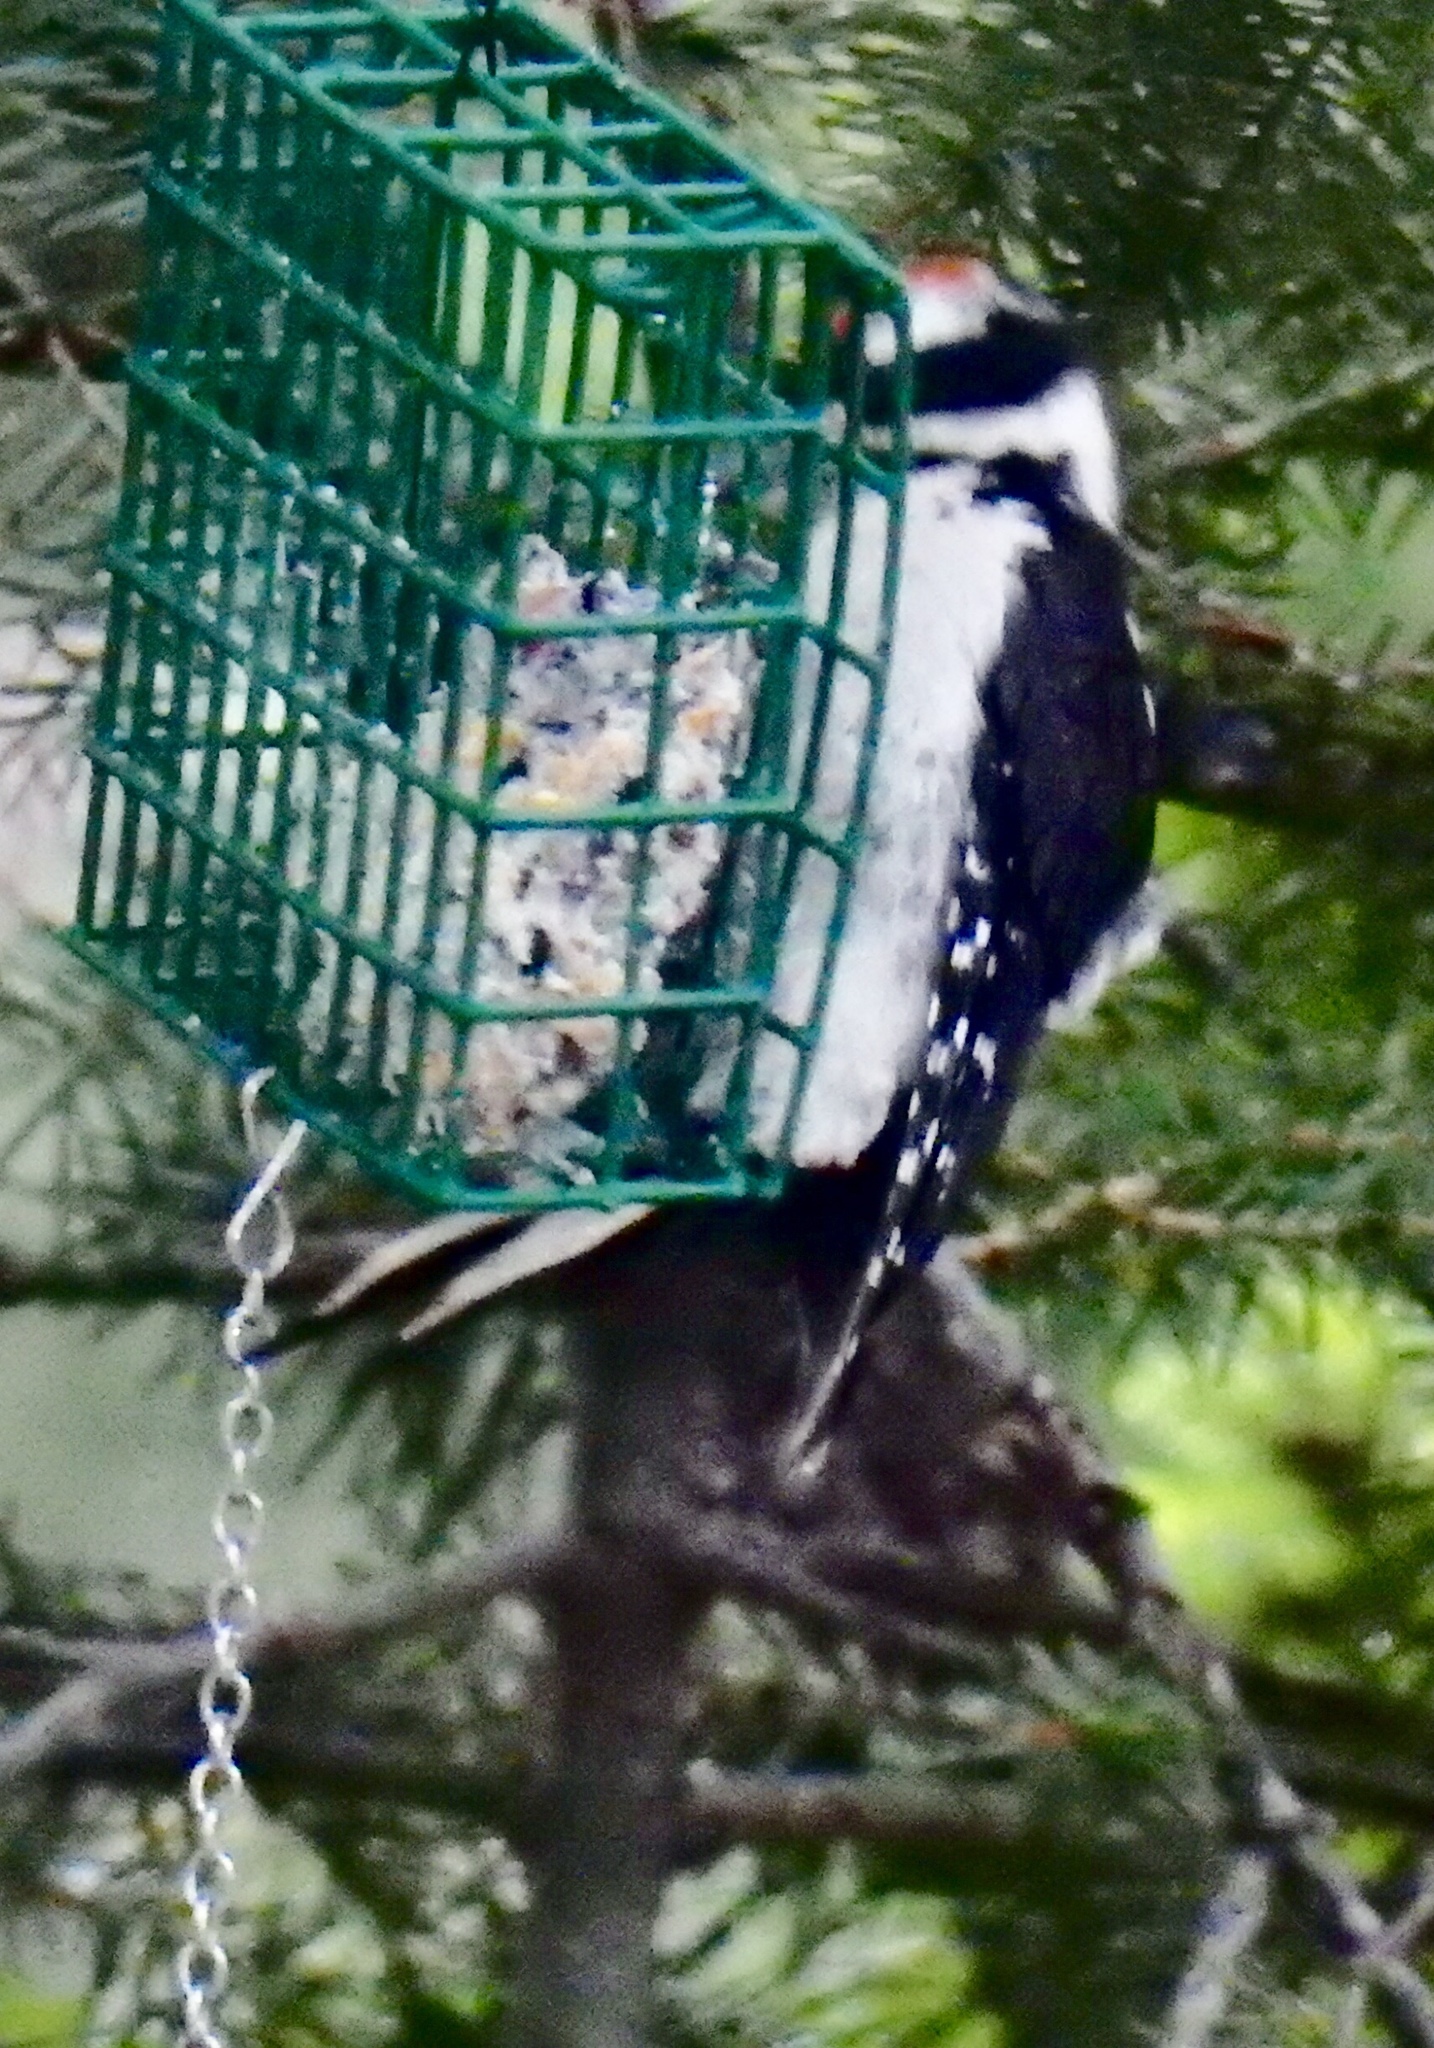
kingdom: Animalia
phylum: Chordata
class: Aves
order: Piciformes
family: Picidae
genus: Leuconotopicus
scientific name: Leuconotopicus villosus
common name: Hairy woodpecker
